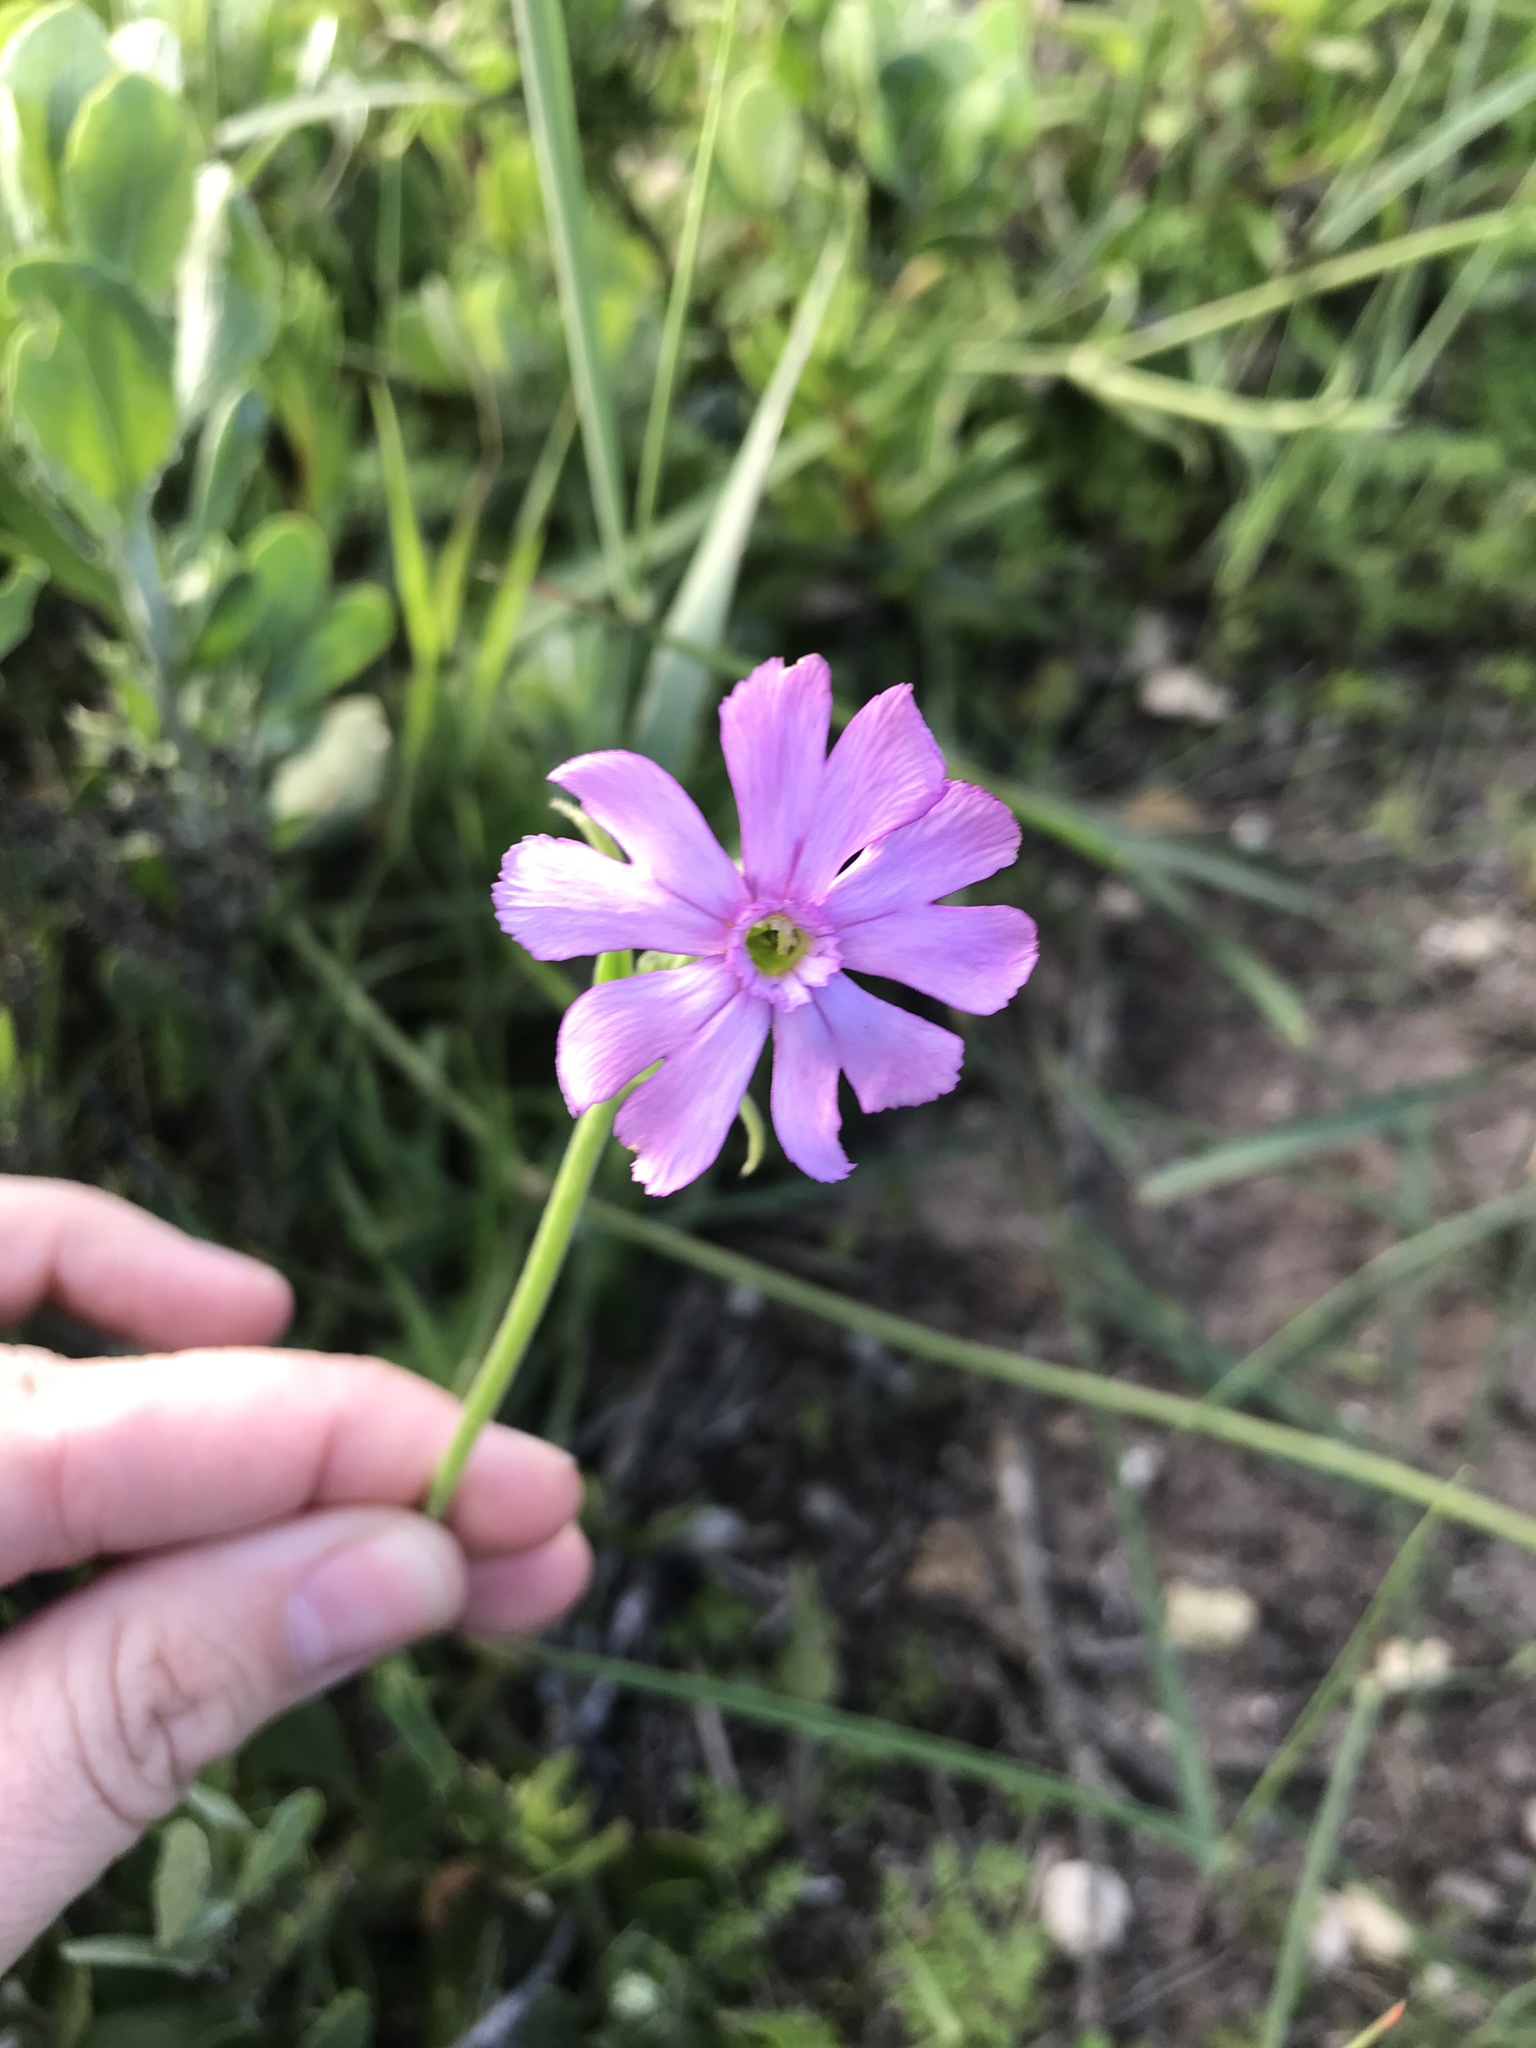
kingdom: Plantae
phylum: Tracheophyta
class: Magnoliopsida
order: Caryophyllales
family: Caryophyllaceae
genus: Silene
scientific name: Silene rigens
